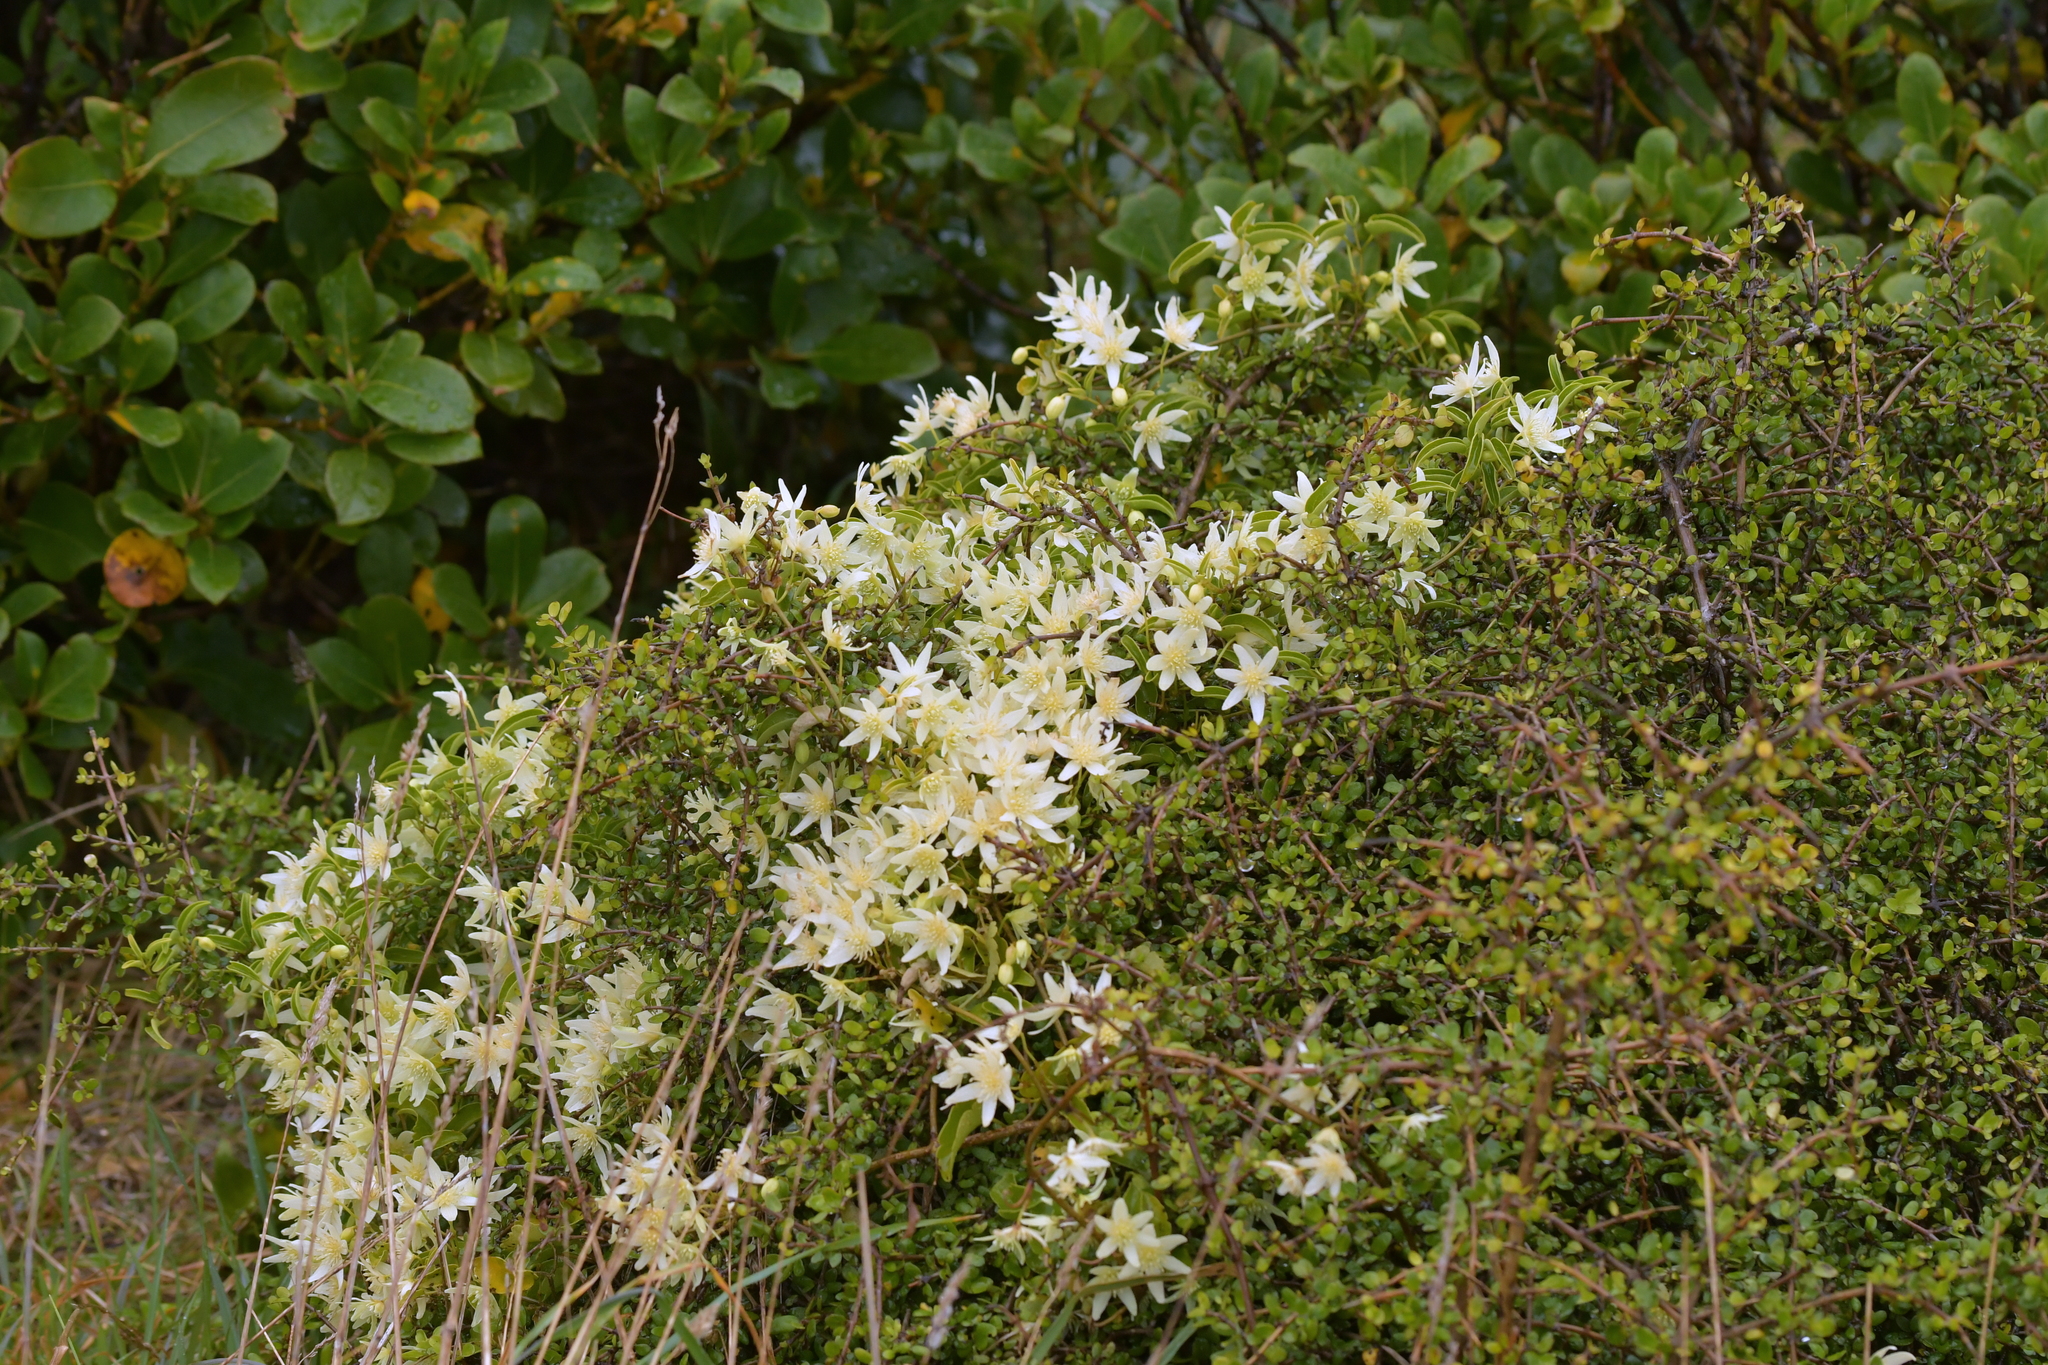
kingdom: Plantae
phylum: Tracheophyta
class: Magnoliopsida
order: Ranunculales
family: Ranunculaceae
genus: Clematis
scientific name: Clematis forsteri
